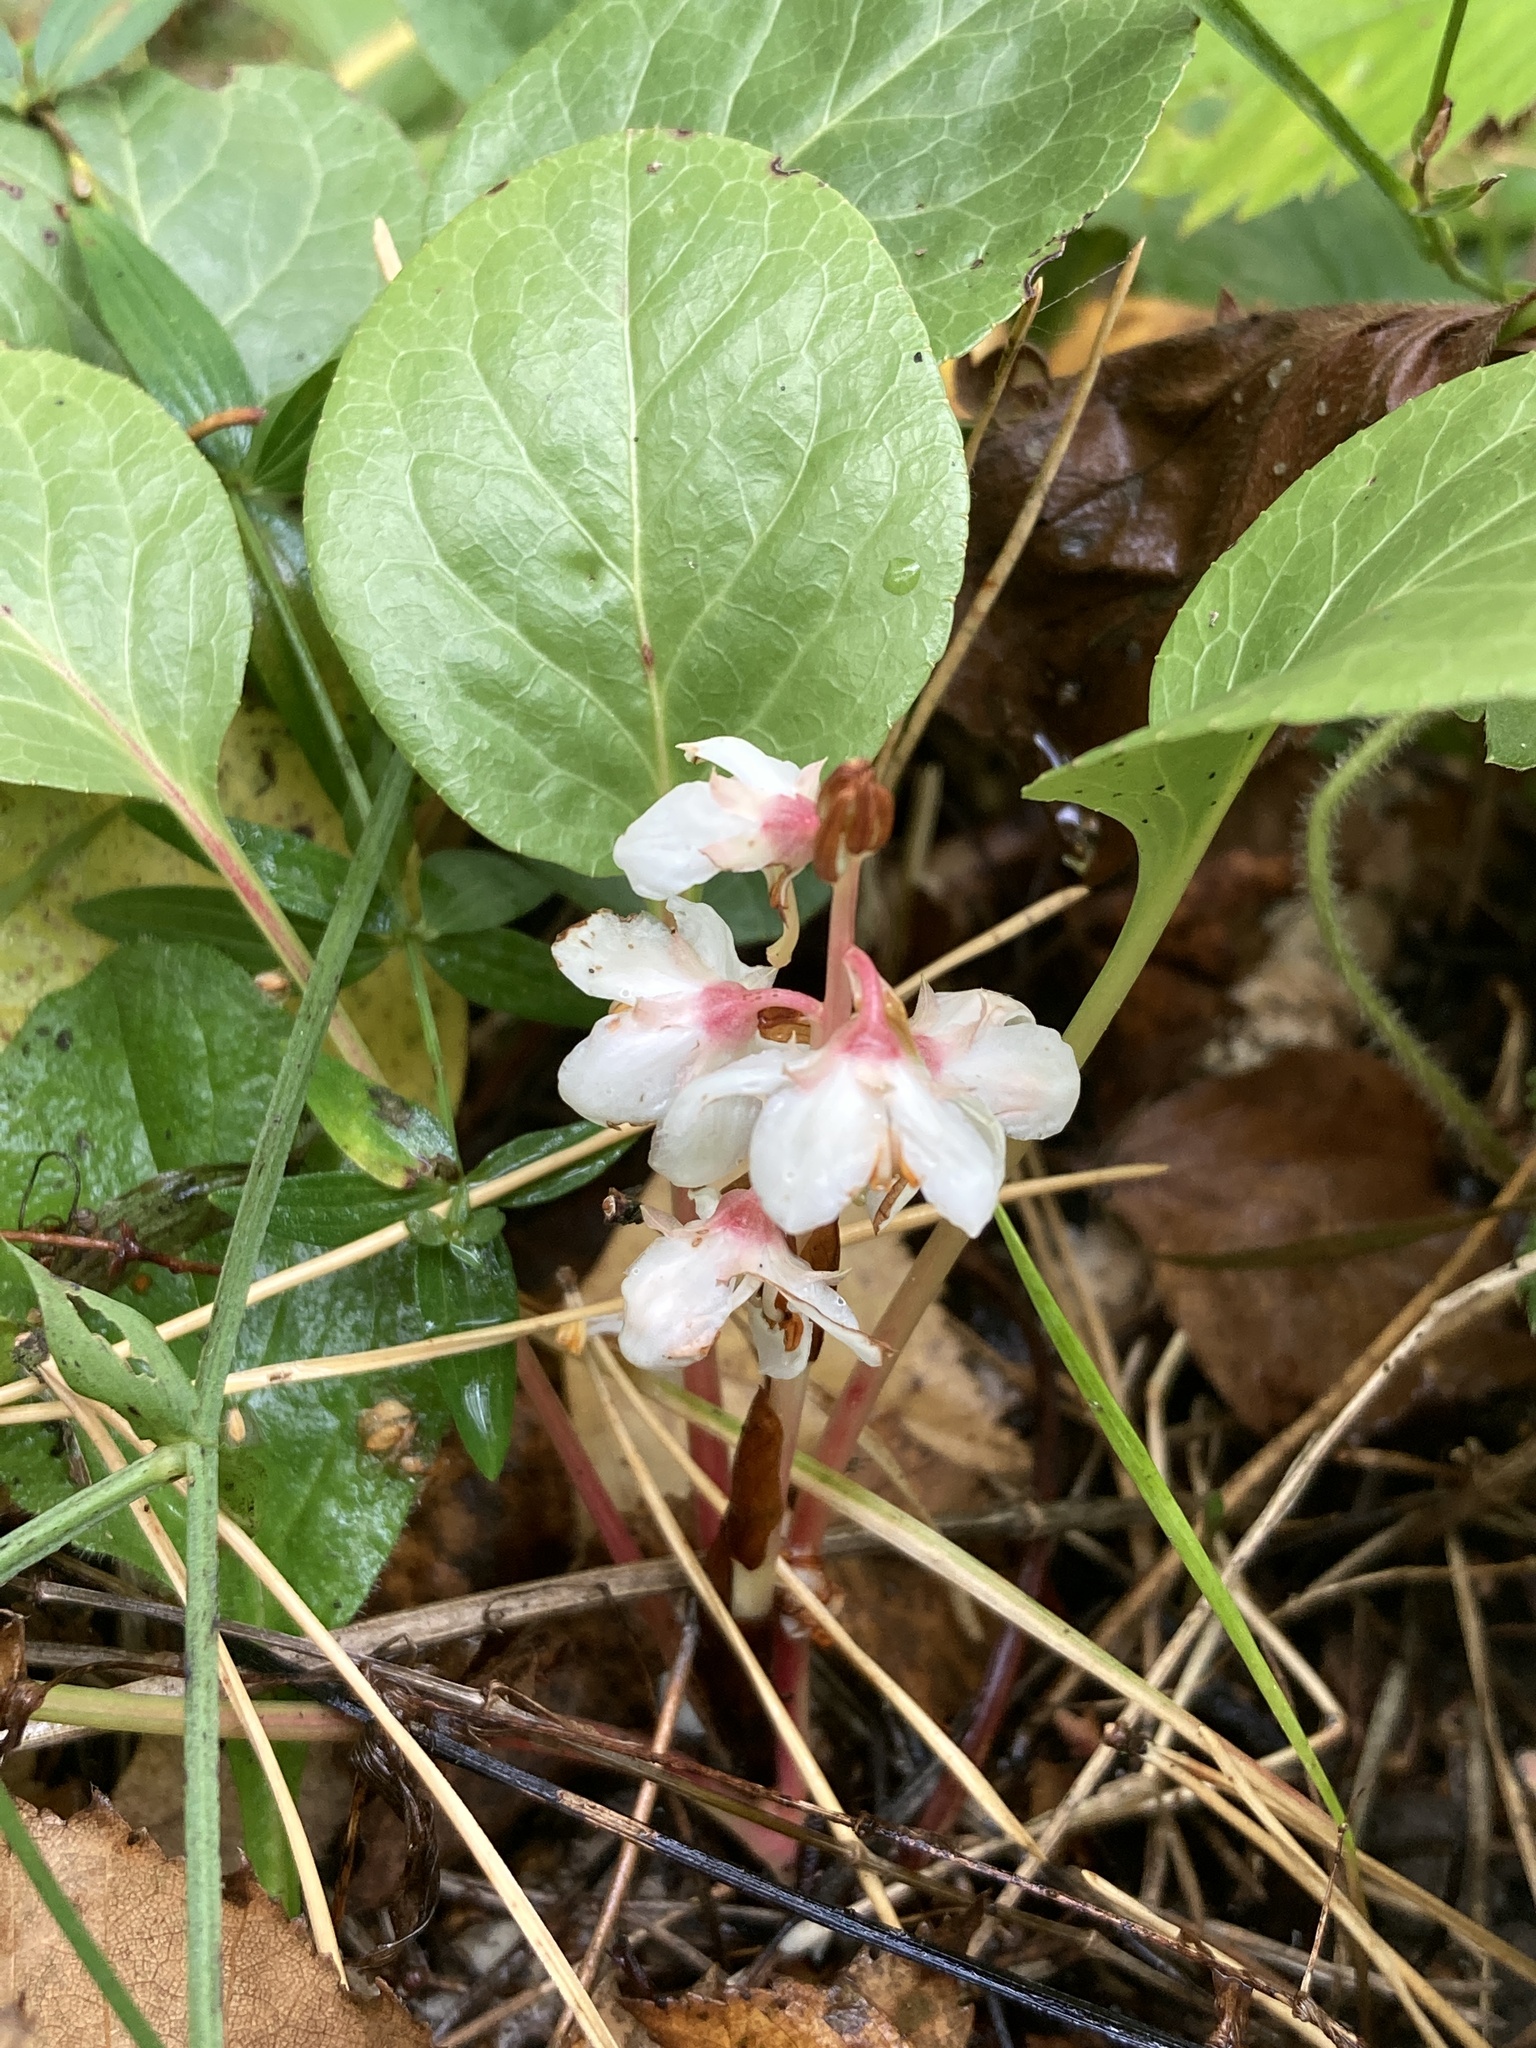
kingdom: Plantae
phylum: Tracheophyta
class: Magnoliopsida
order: Ericales
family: Ericaceae
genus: Pyrola
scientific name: Pyrola rotundifolia
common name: Round-leaved wintergreen
